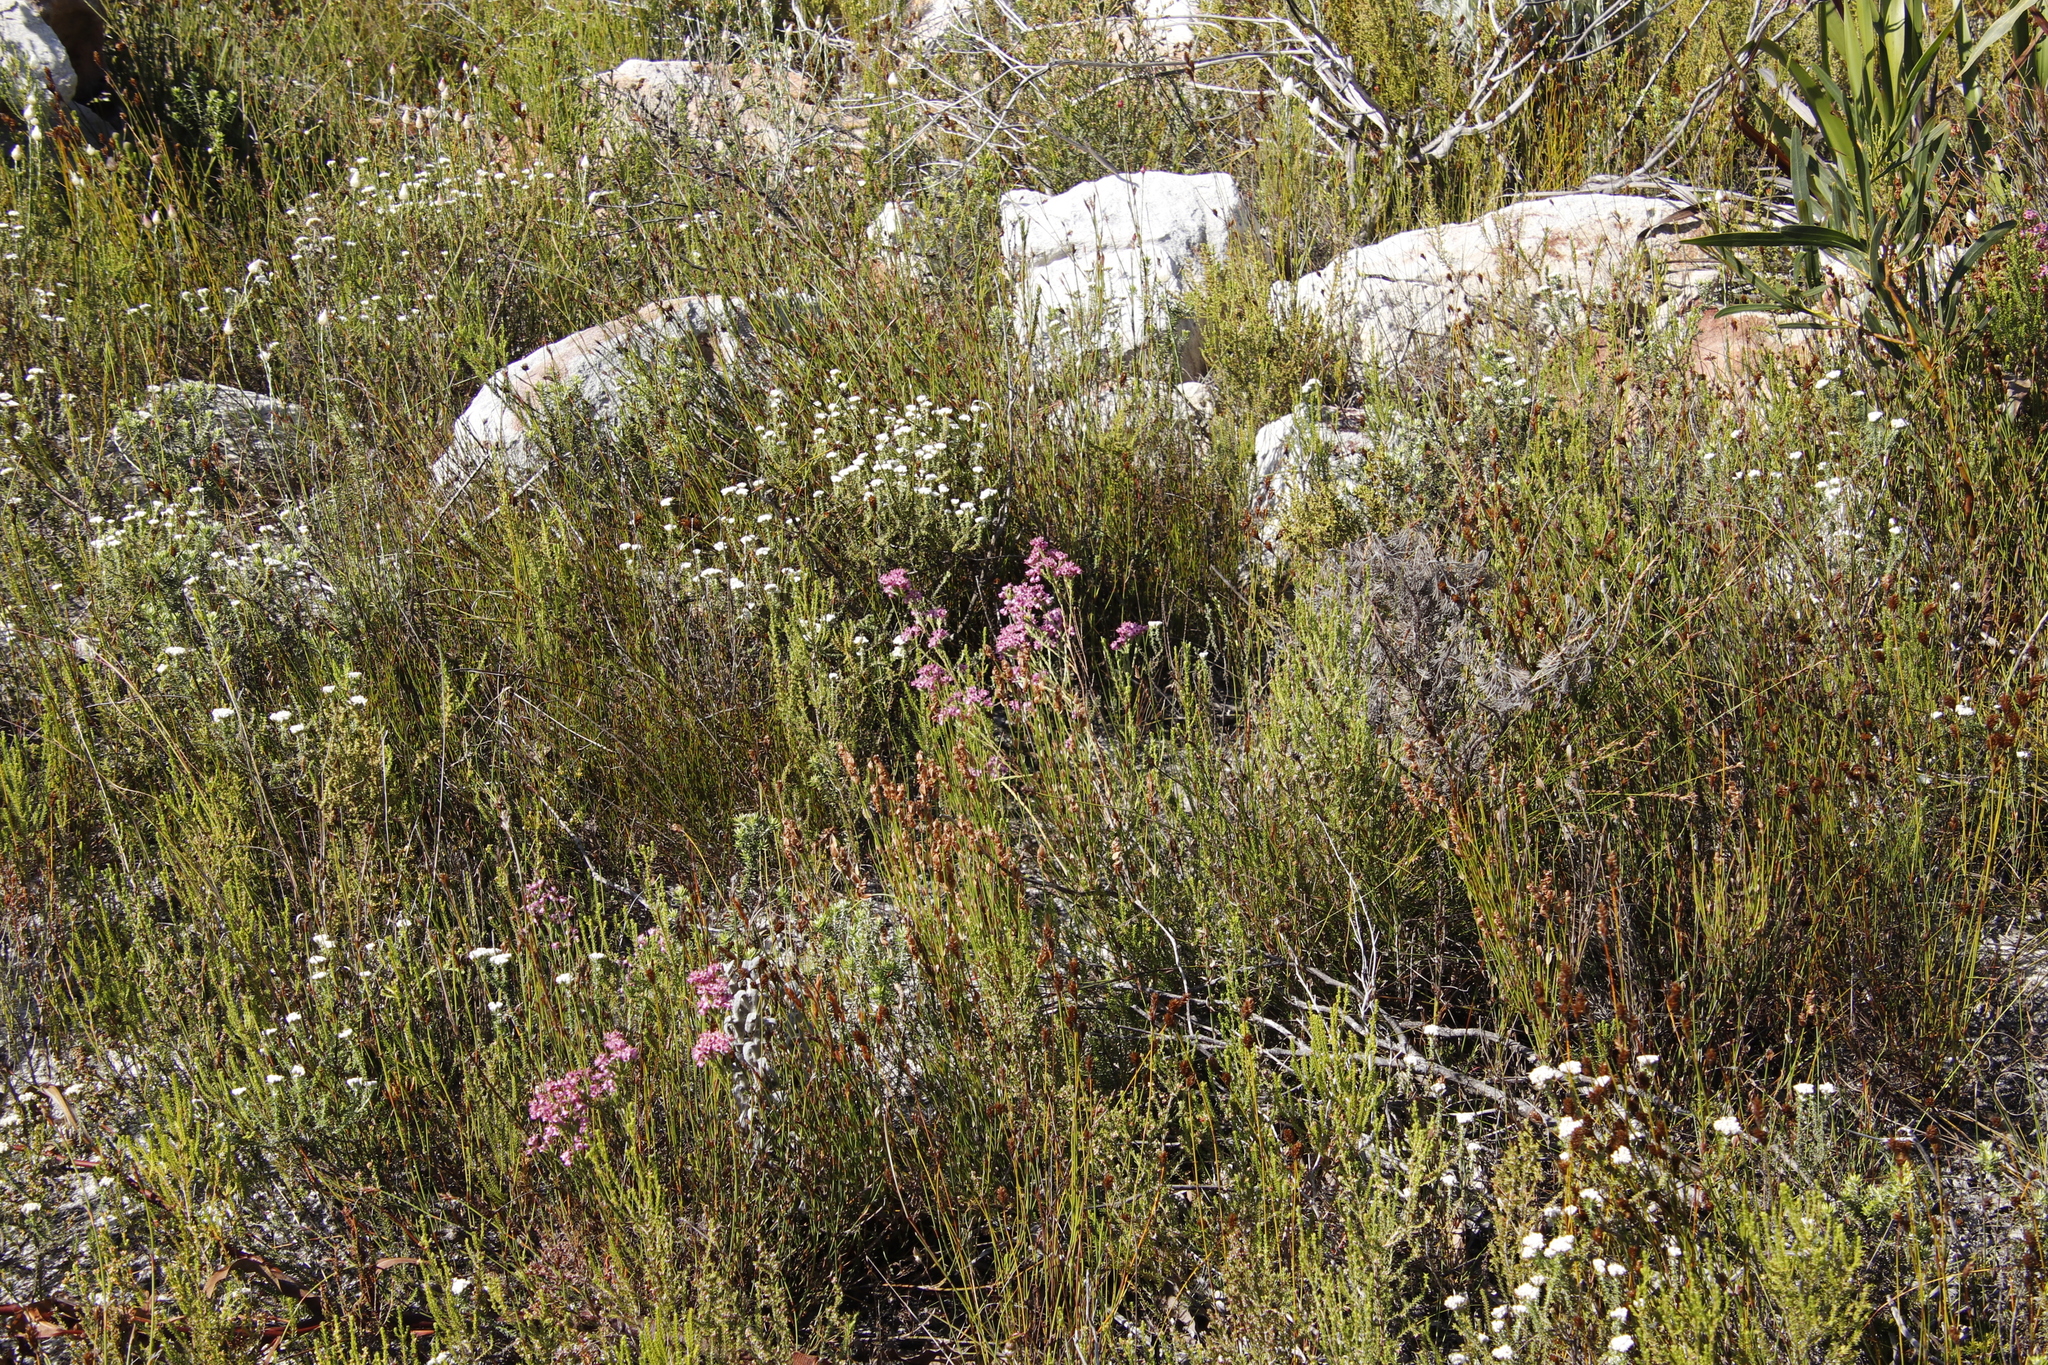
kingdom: Plantae
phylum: Tracheophyta
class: Magnoliopsida
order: Ericales
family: Ericaceae
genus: Erica
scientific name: Erica corifolia
